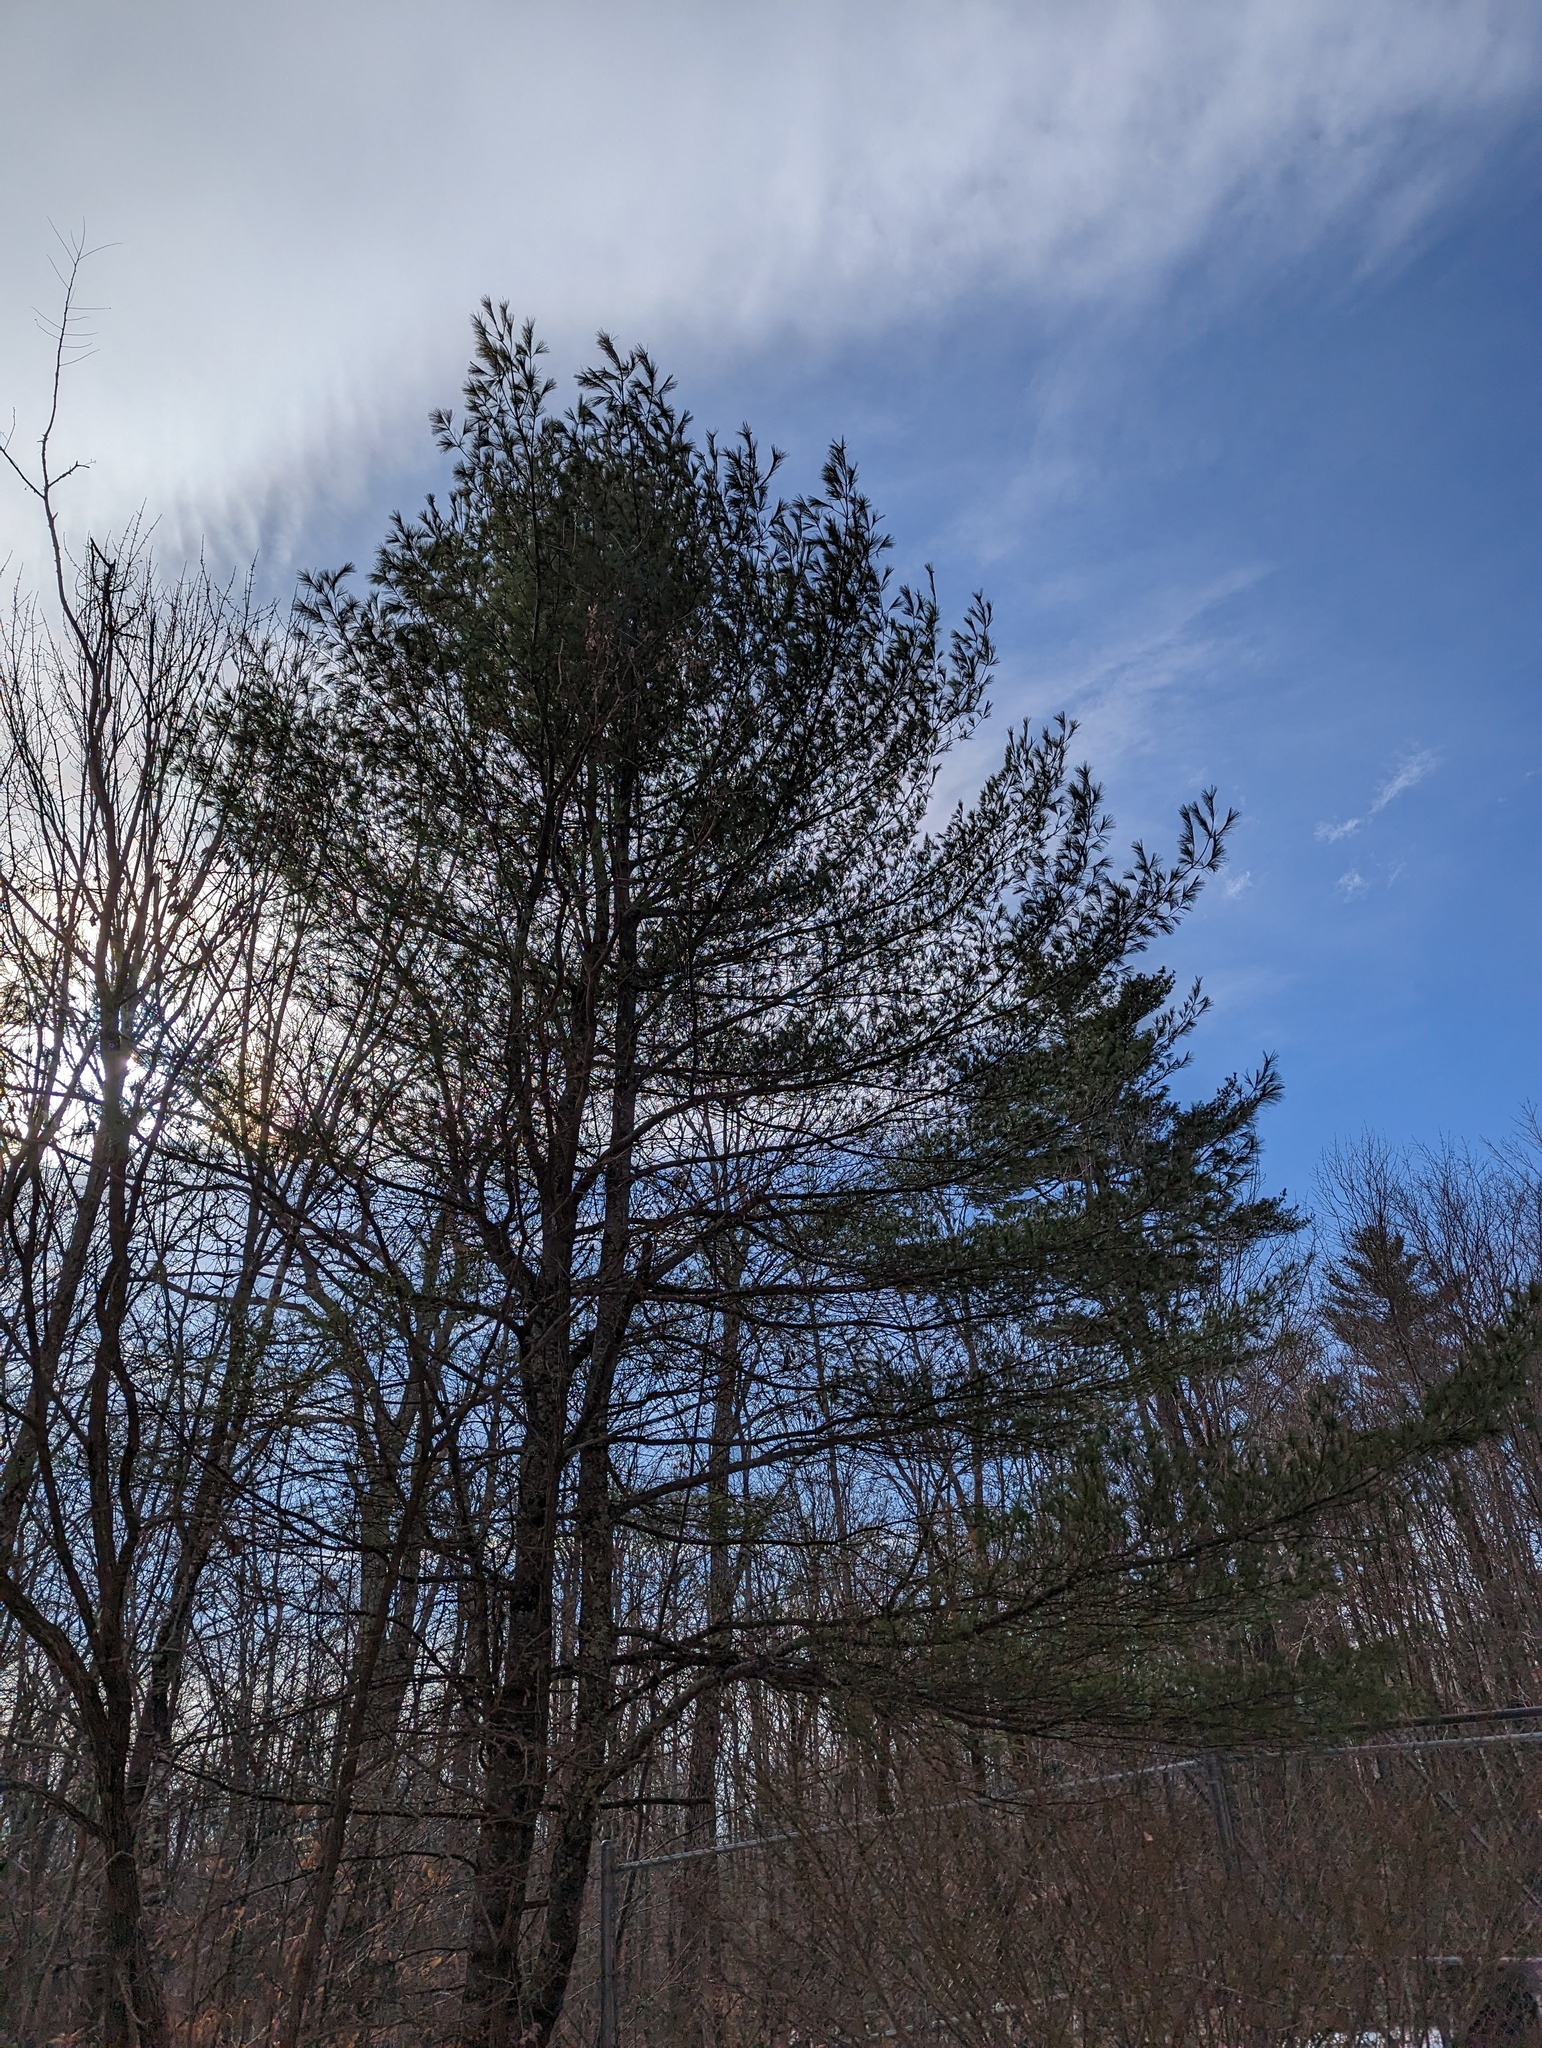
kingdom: Plantae
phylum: Tracheophyta
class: Pinopsida
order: Pinales
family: Pinaceae
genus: Pinus
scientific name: Pinus strobus
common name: Weymouth pine
